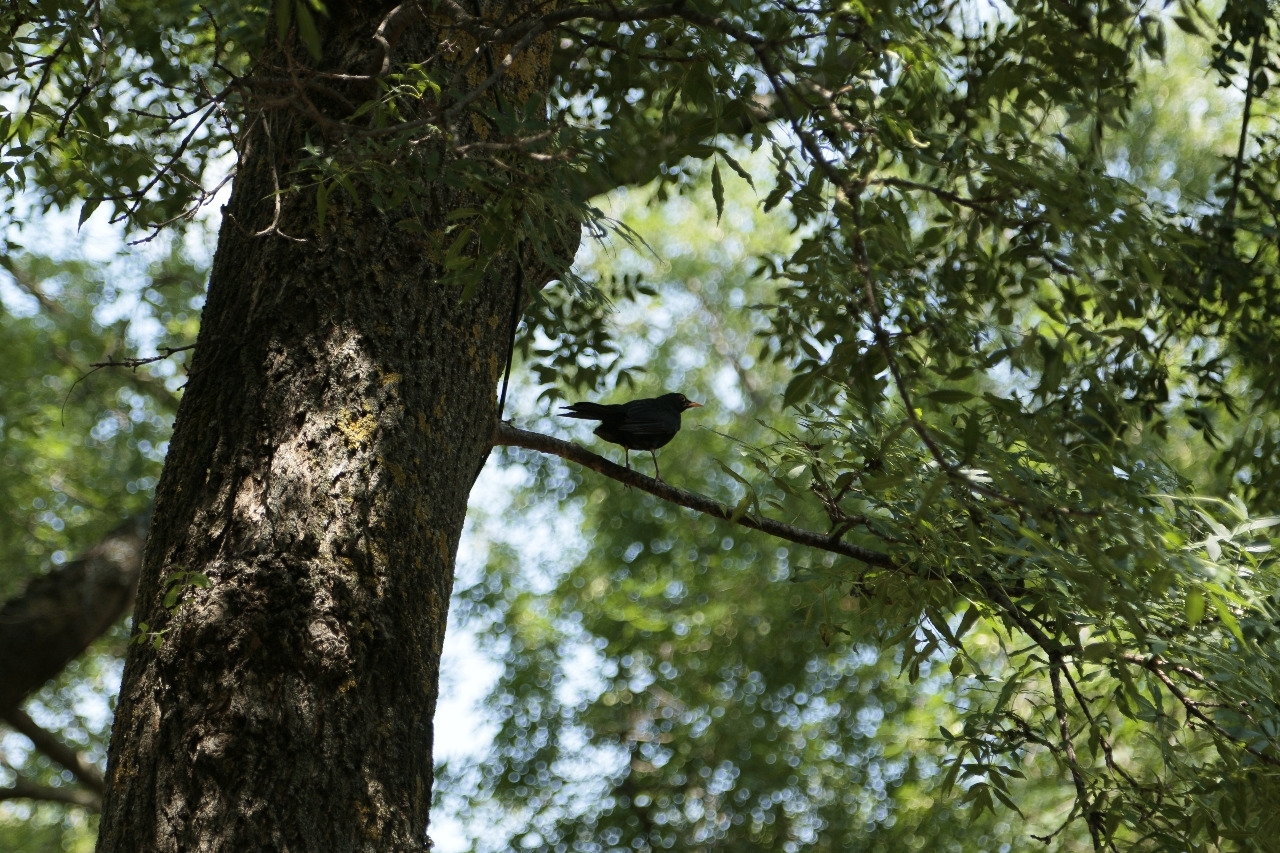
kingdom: Animalia
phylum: Chordata
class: Aves
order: Passeriformes
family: Turdidae
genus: Turdus
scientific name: Turdus merula
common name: Common blackbird
